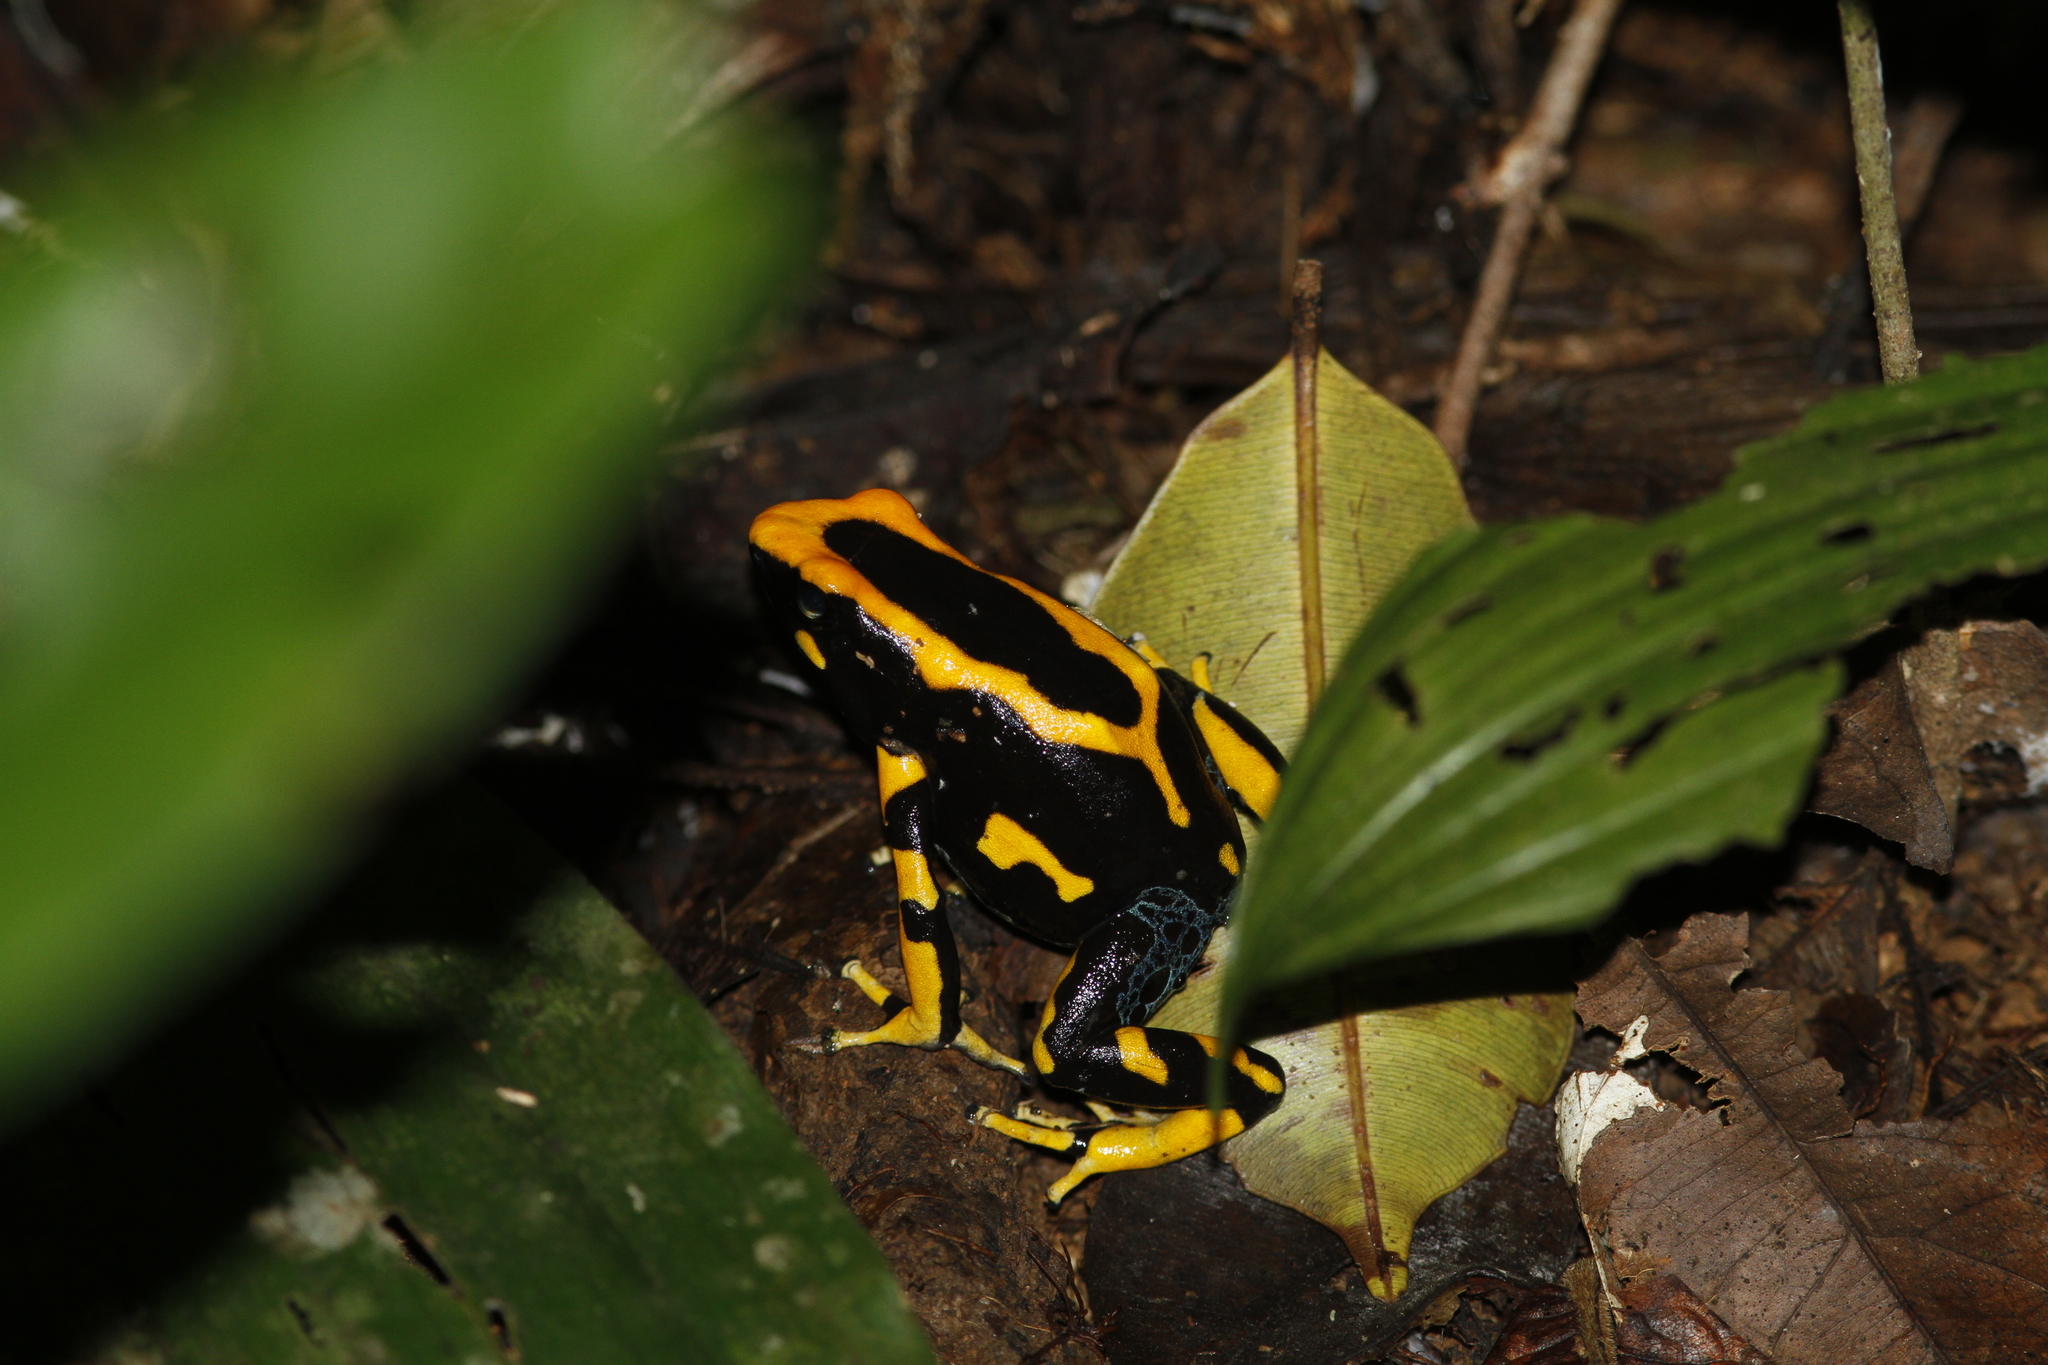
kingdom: Animalia
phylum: Chordata
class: Amphibia
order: Anura
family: Dendrobatidae
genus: Dendrobates
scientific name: Dendrobates tinctorius
